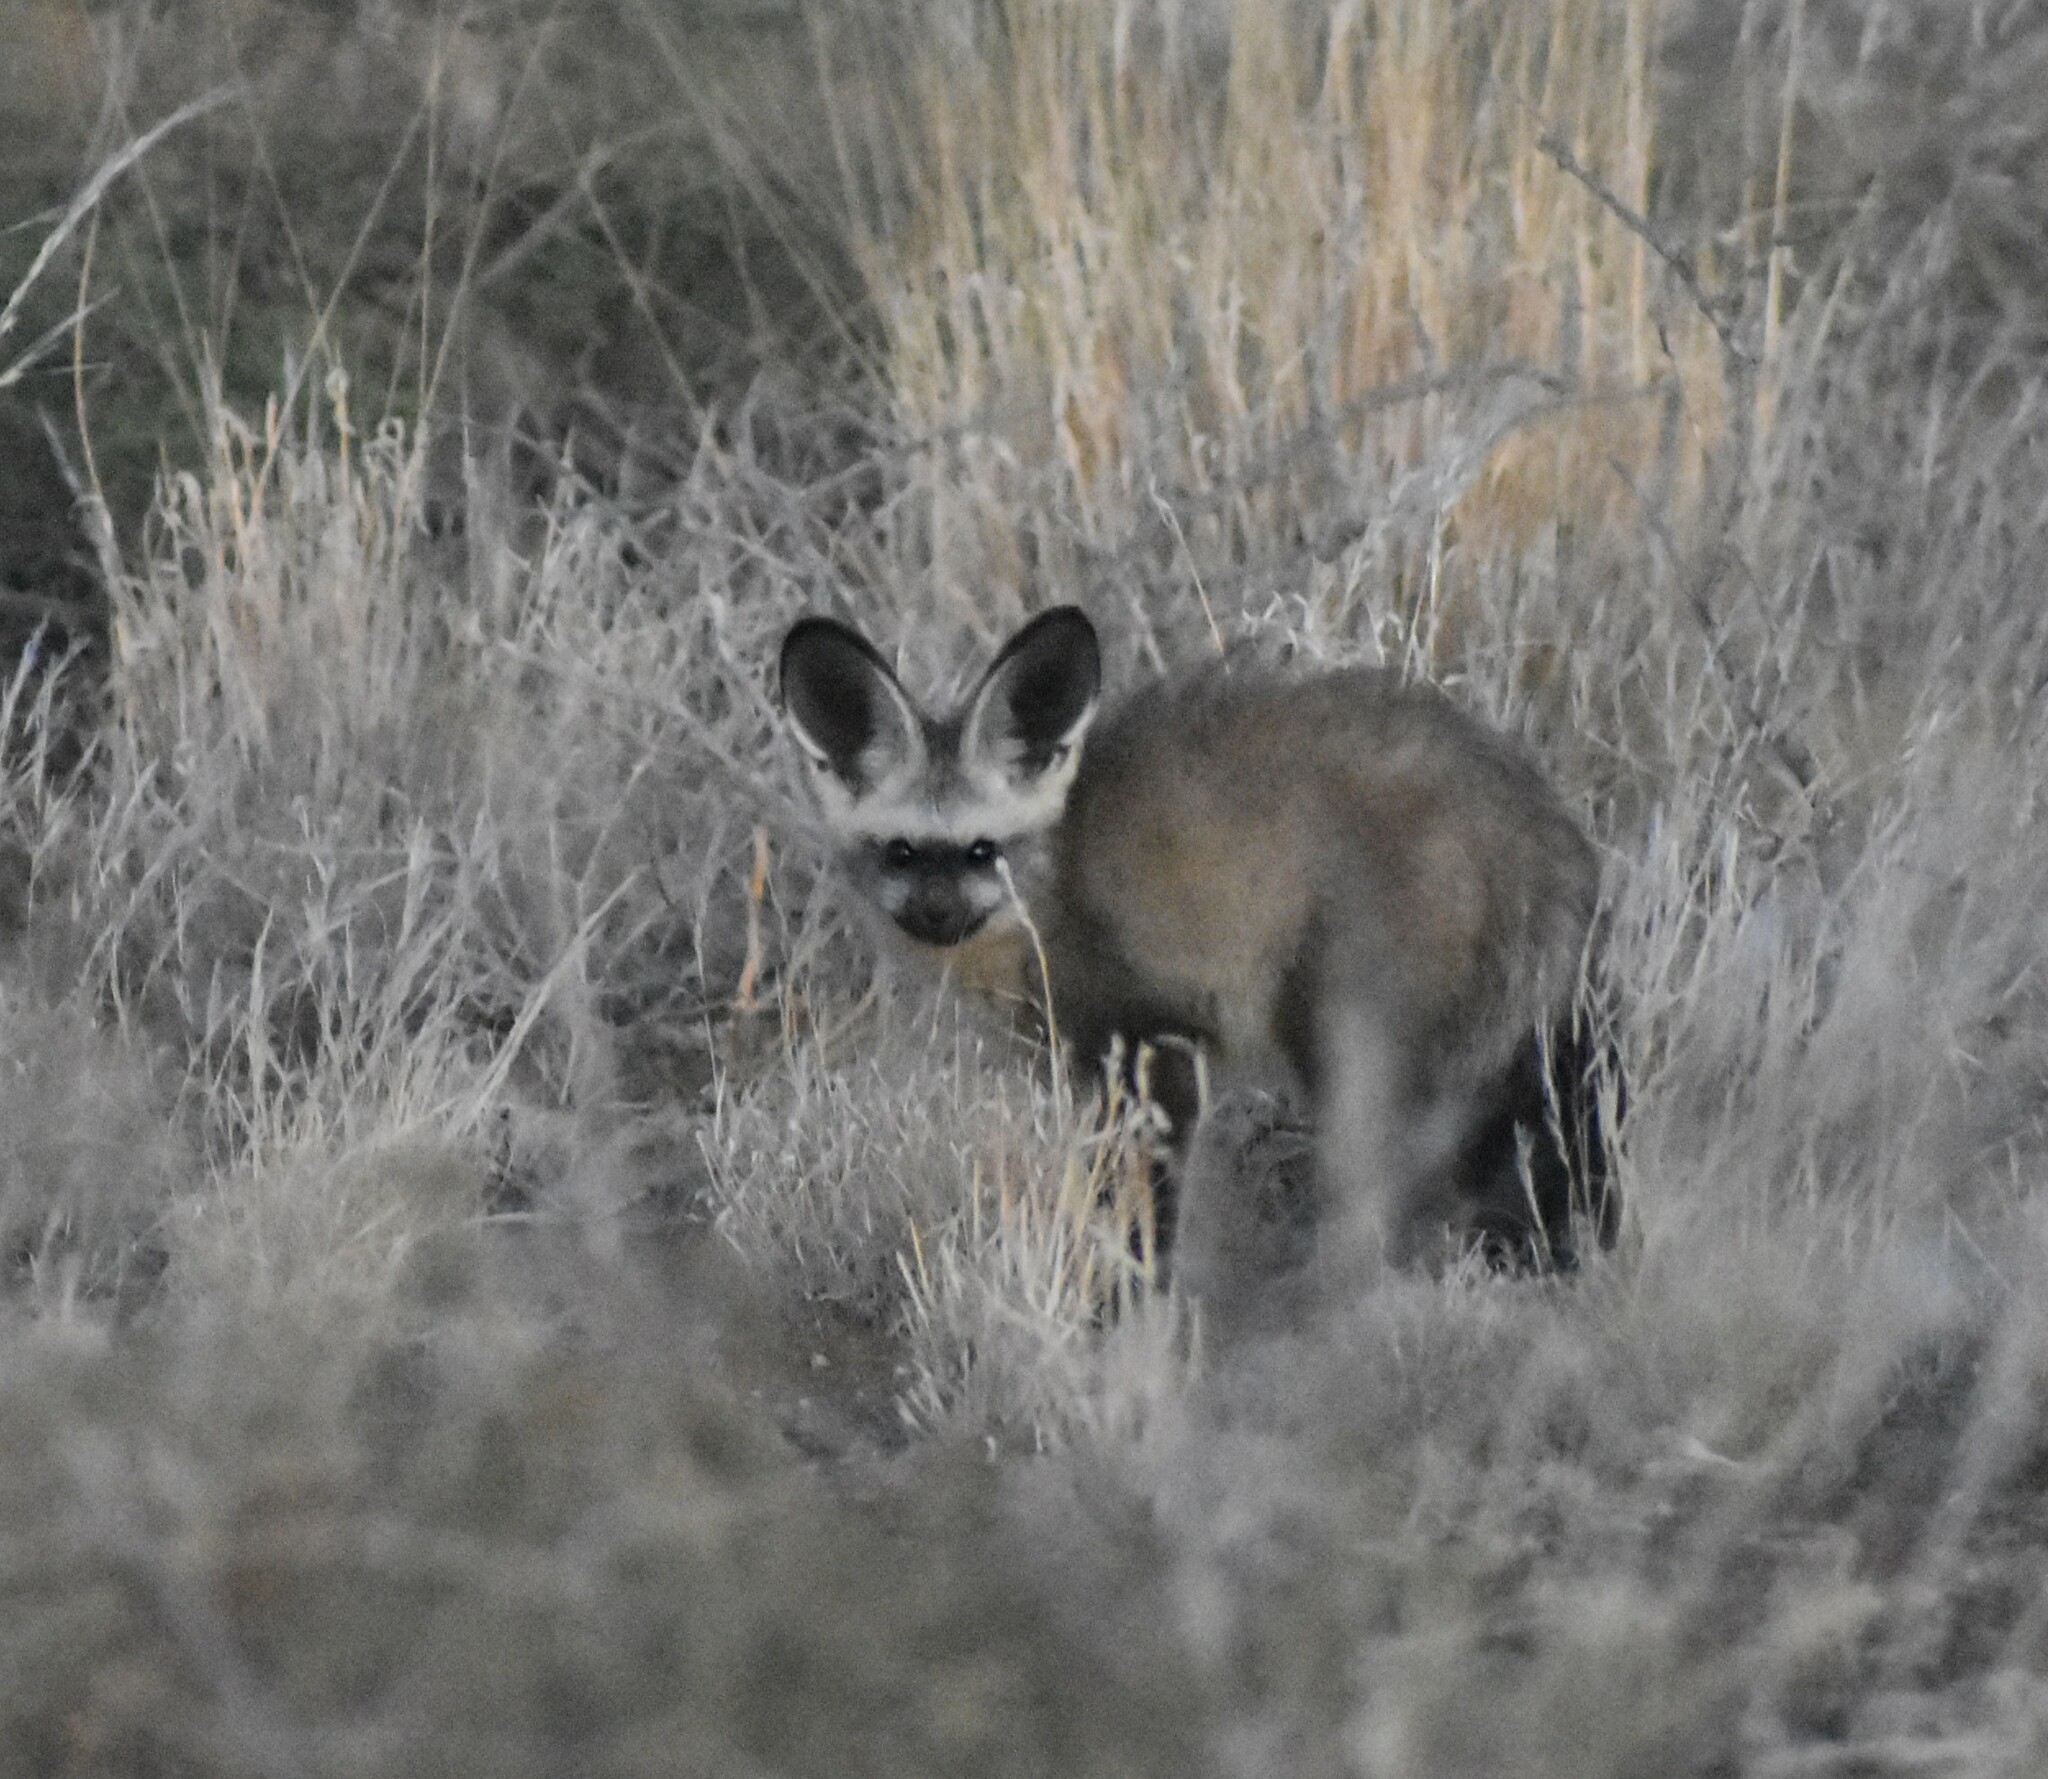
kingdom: Animalia
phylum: Chordata
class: Mammalia
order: Carnivora
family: Canidae
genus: Otocyon
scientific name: Otocyon megalotis
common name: Bat-eared fox
